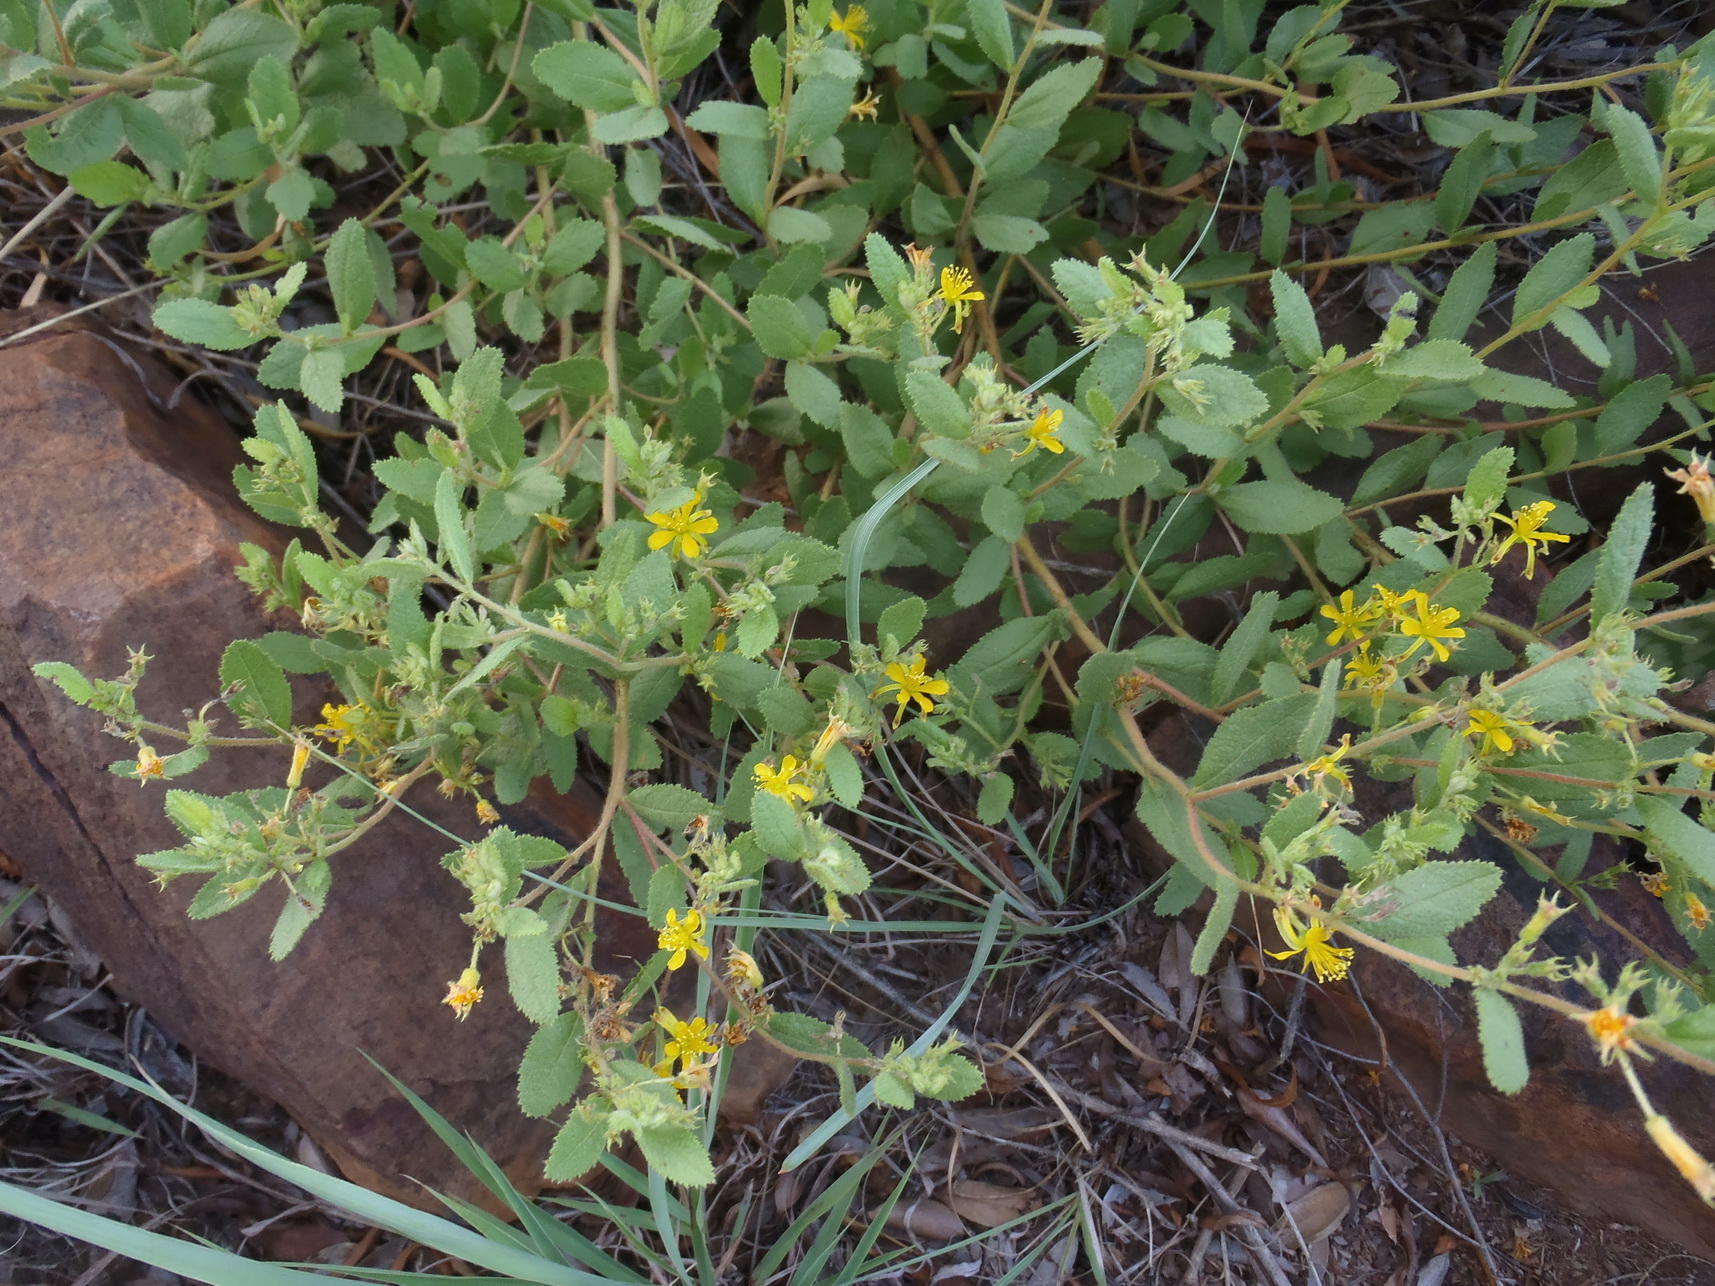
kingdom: Plantae
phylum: Tracheophyta
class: Magnoliopsida
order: Malvales
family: Malvaceae
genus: Triumfetta
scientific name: Triumfetta sonderi
